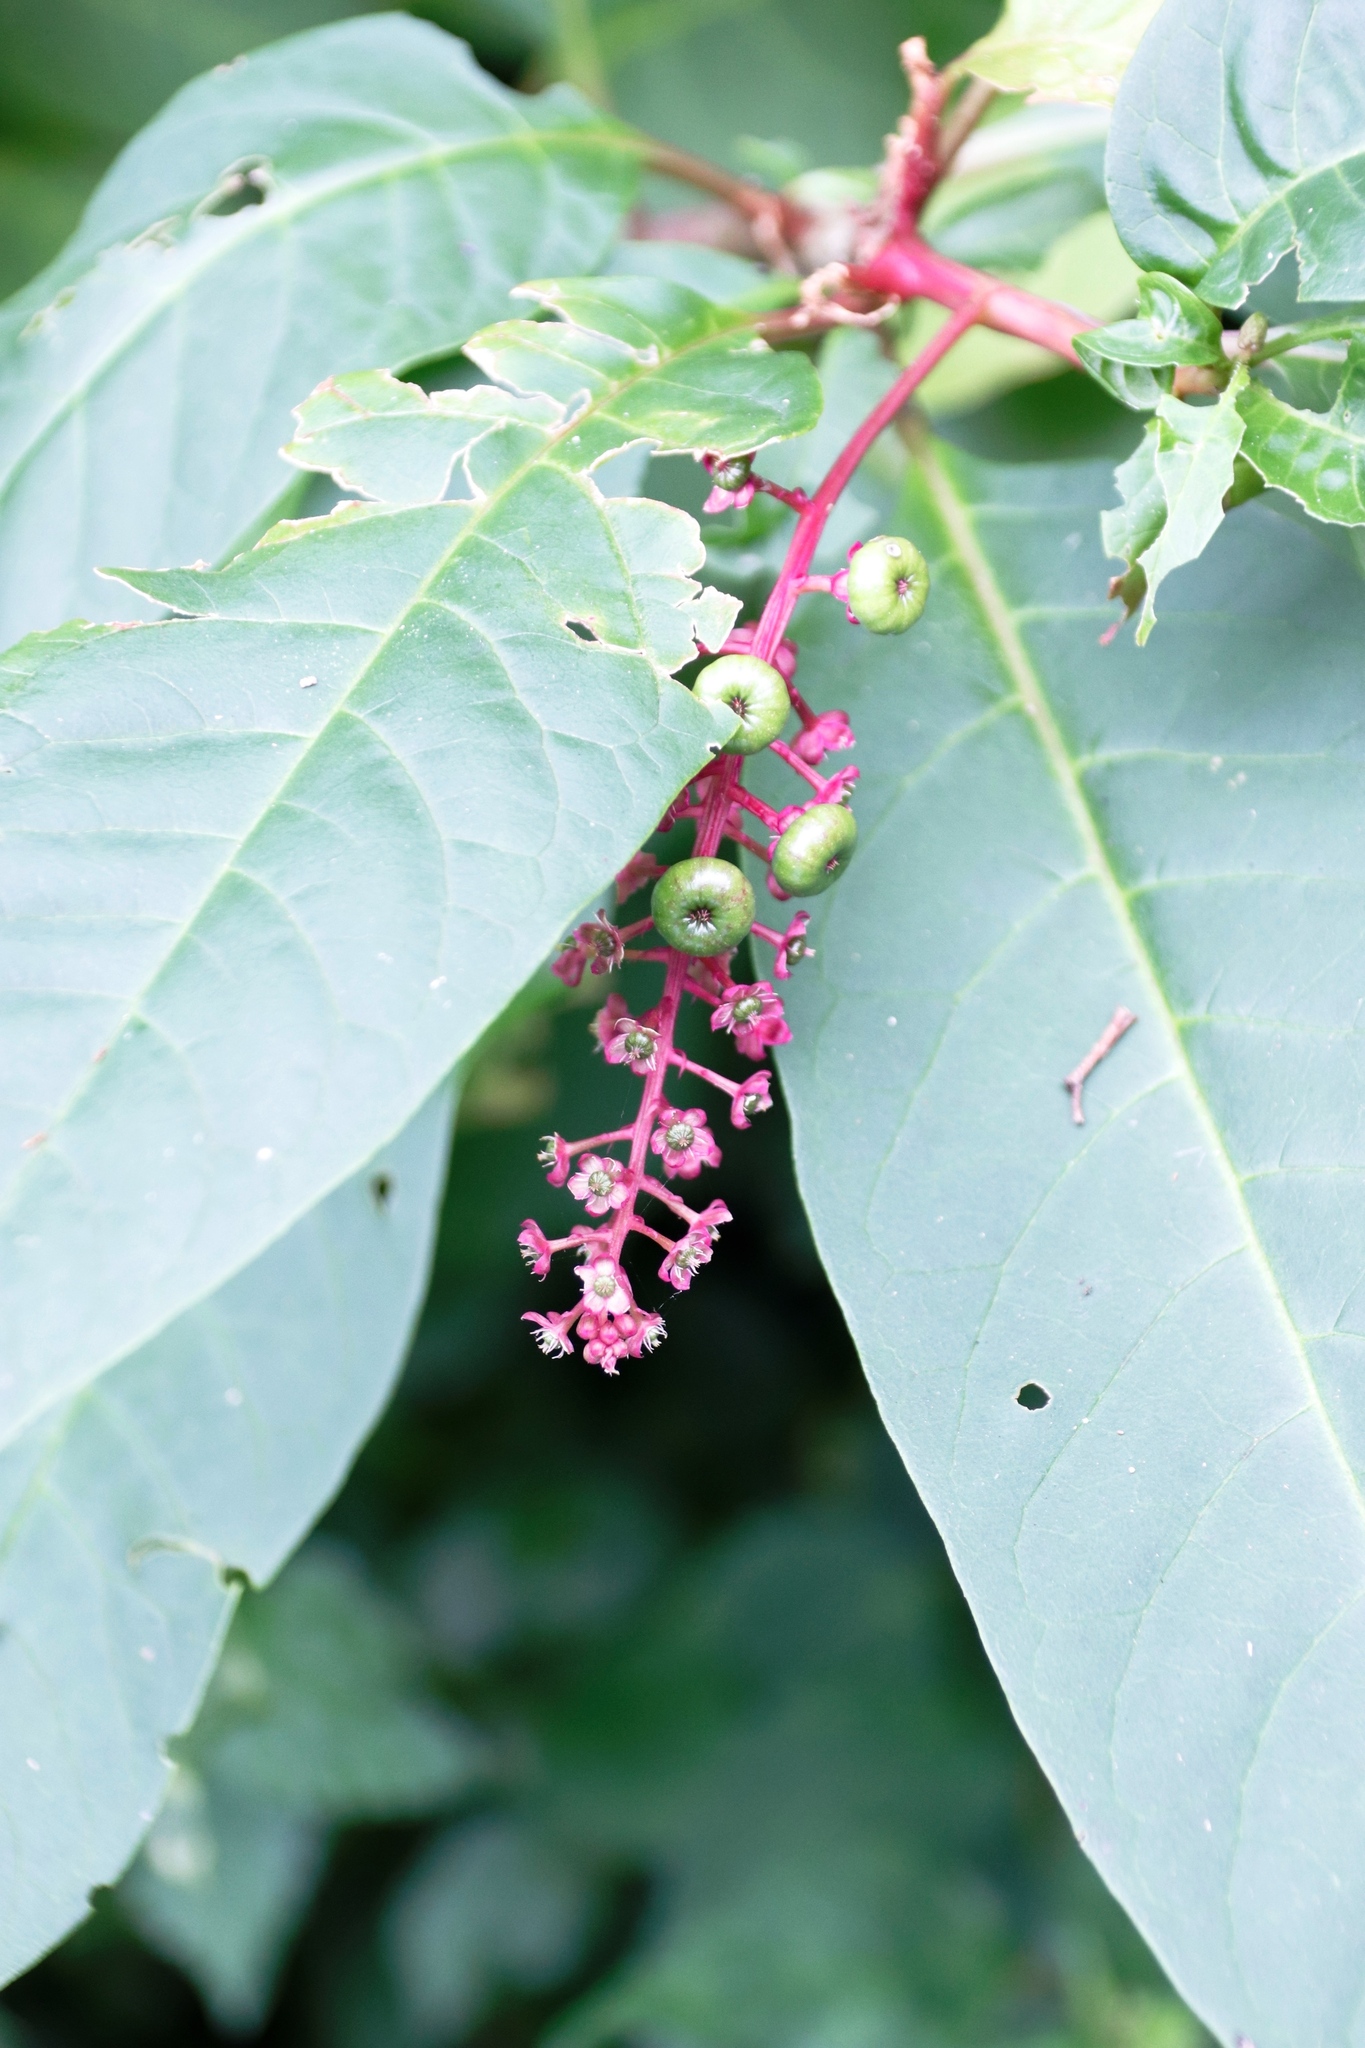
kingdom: Plantae
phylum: Tracheophyta
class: Magnoliopsida
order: Caryophyllales
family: Phytolaccaceae
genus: Phytolacca
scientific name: Phytolacca americana
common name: American pokeweed
